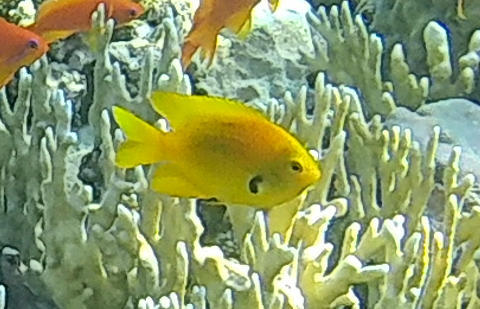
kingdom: Animalia
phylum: Chordata
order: Perciformes
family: Pomacentridae
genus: Pomacentrus
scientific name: Pomacentrus sulfureus
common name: Sulfur damsel
